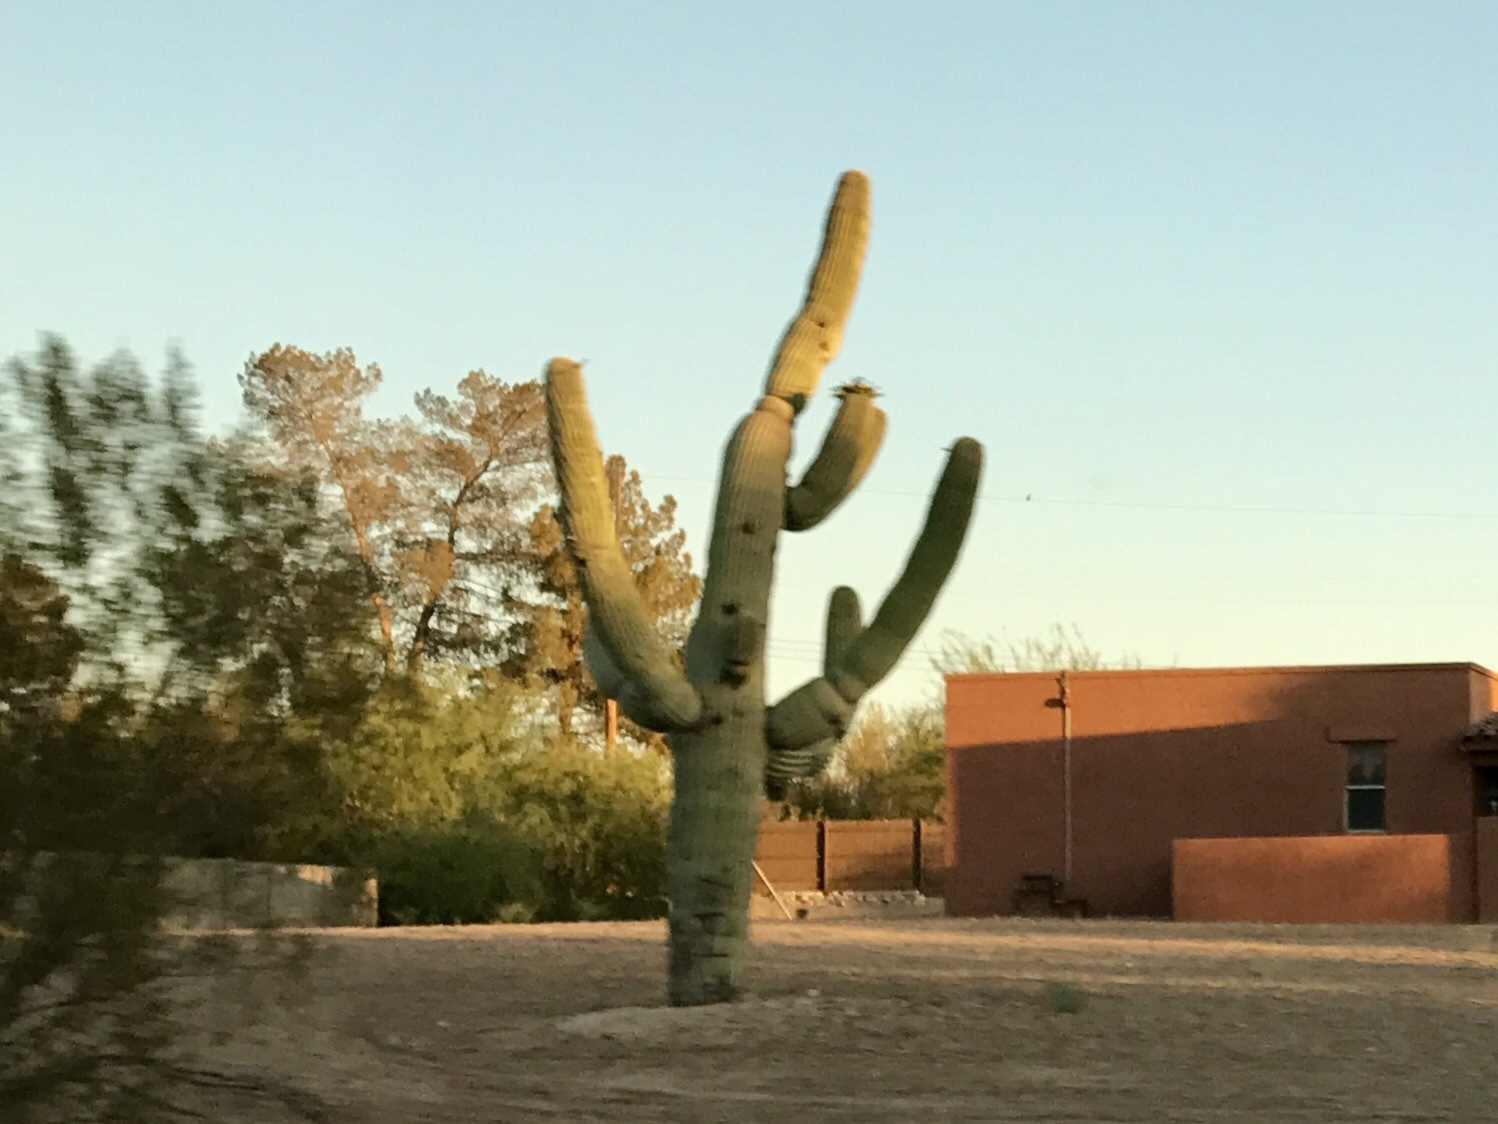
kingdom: Plantae
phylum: Tracheophyta
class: Magnoliopsida
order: Caryophyllales
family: Cactaceae
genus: Carnegiea
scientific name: Carnegiea gigantea
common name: Saguaro
